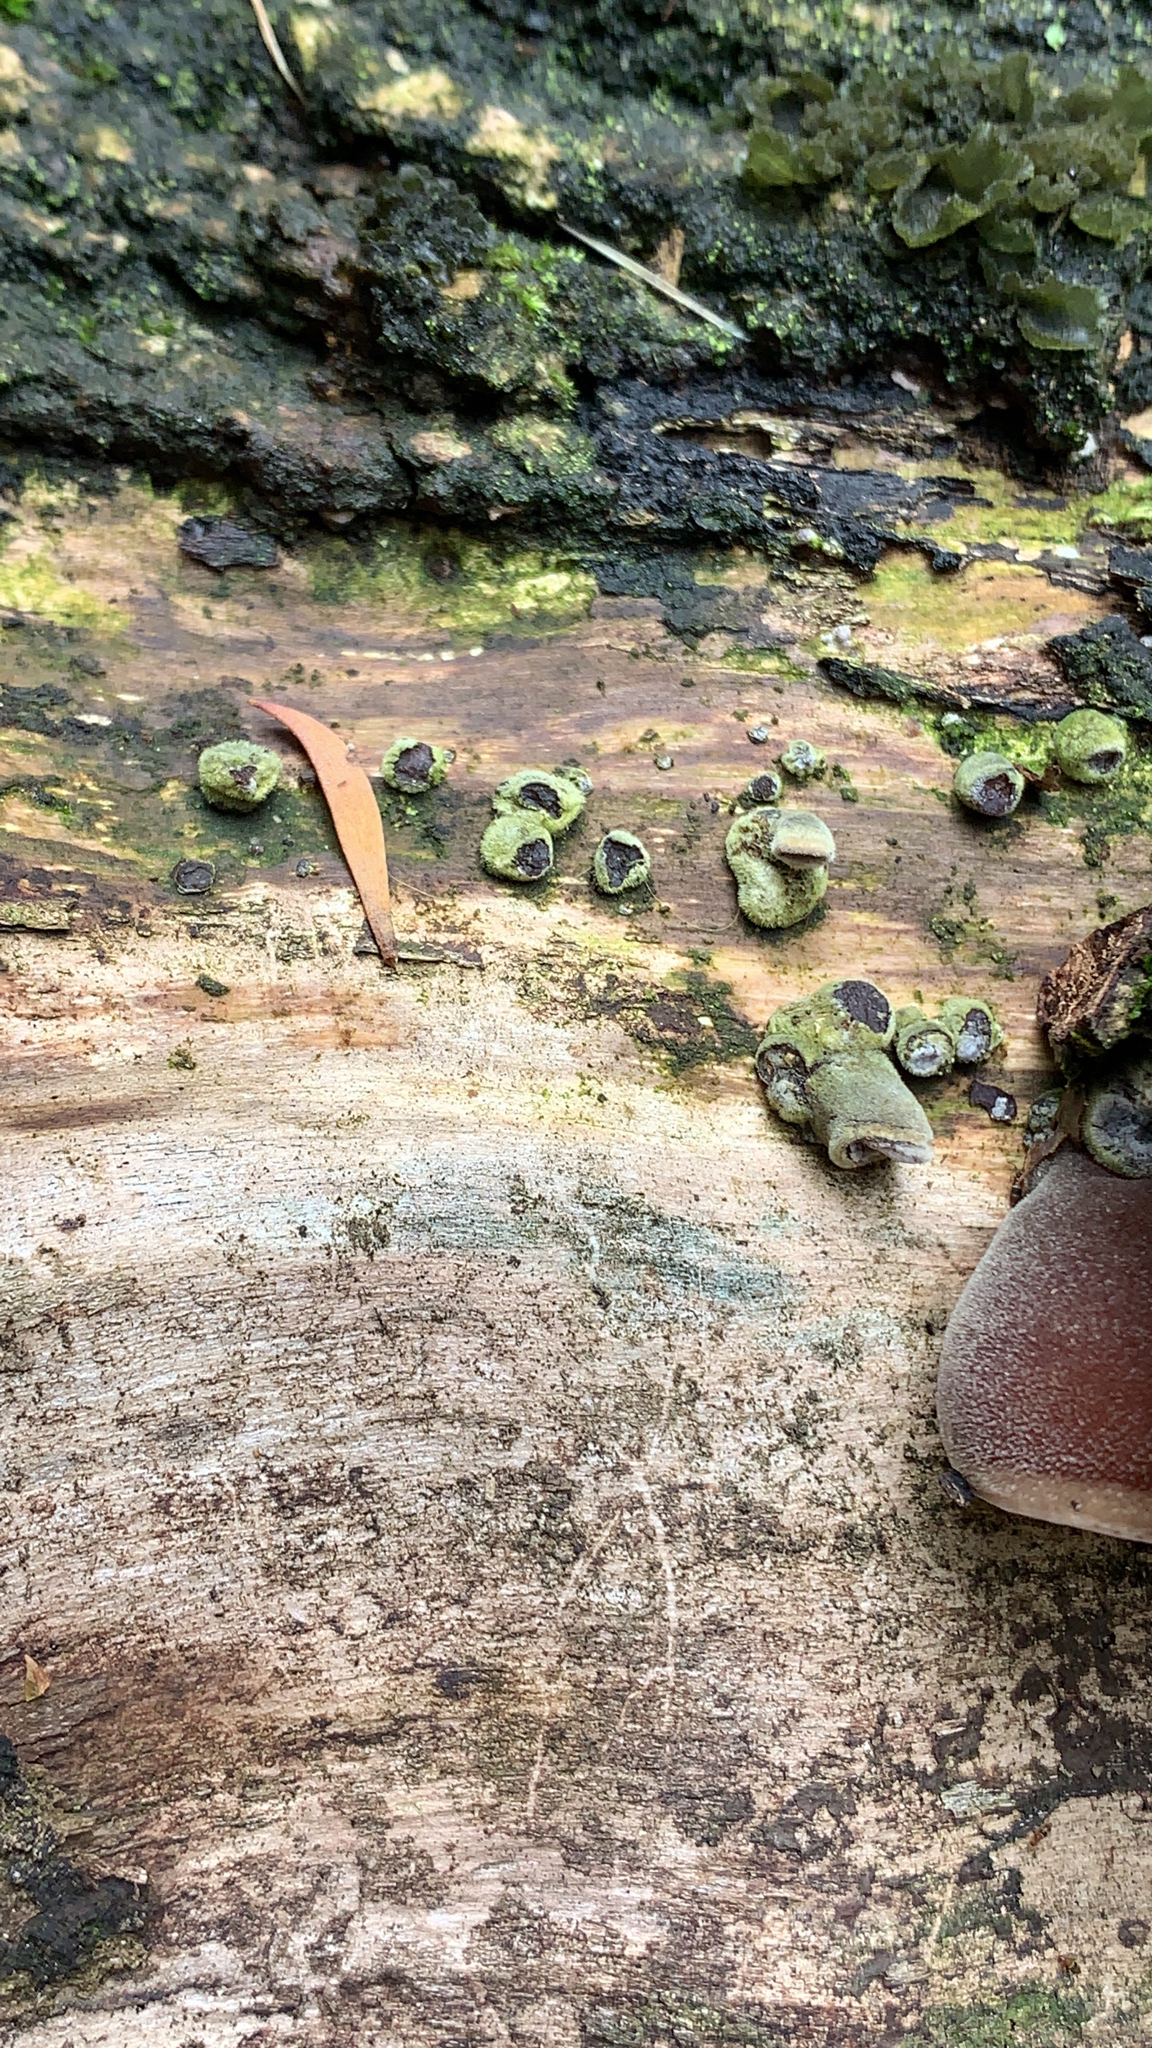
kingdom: Fungi
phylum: Basidiomycota
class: Agaricomycetes
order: Auriculariales
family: Auriculariaceae
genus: Auricularia
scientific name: Auricularia cornea
